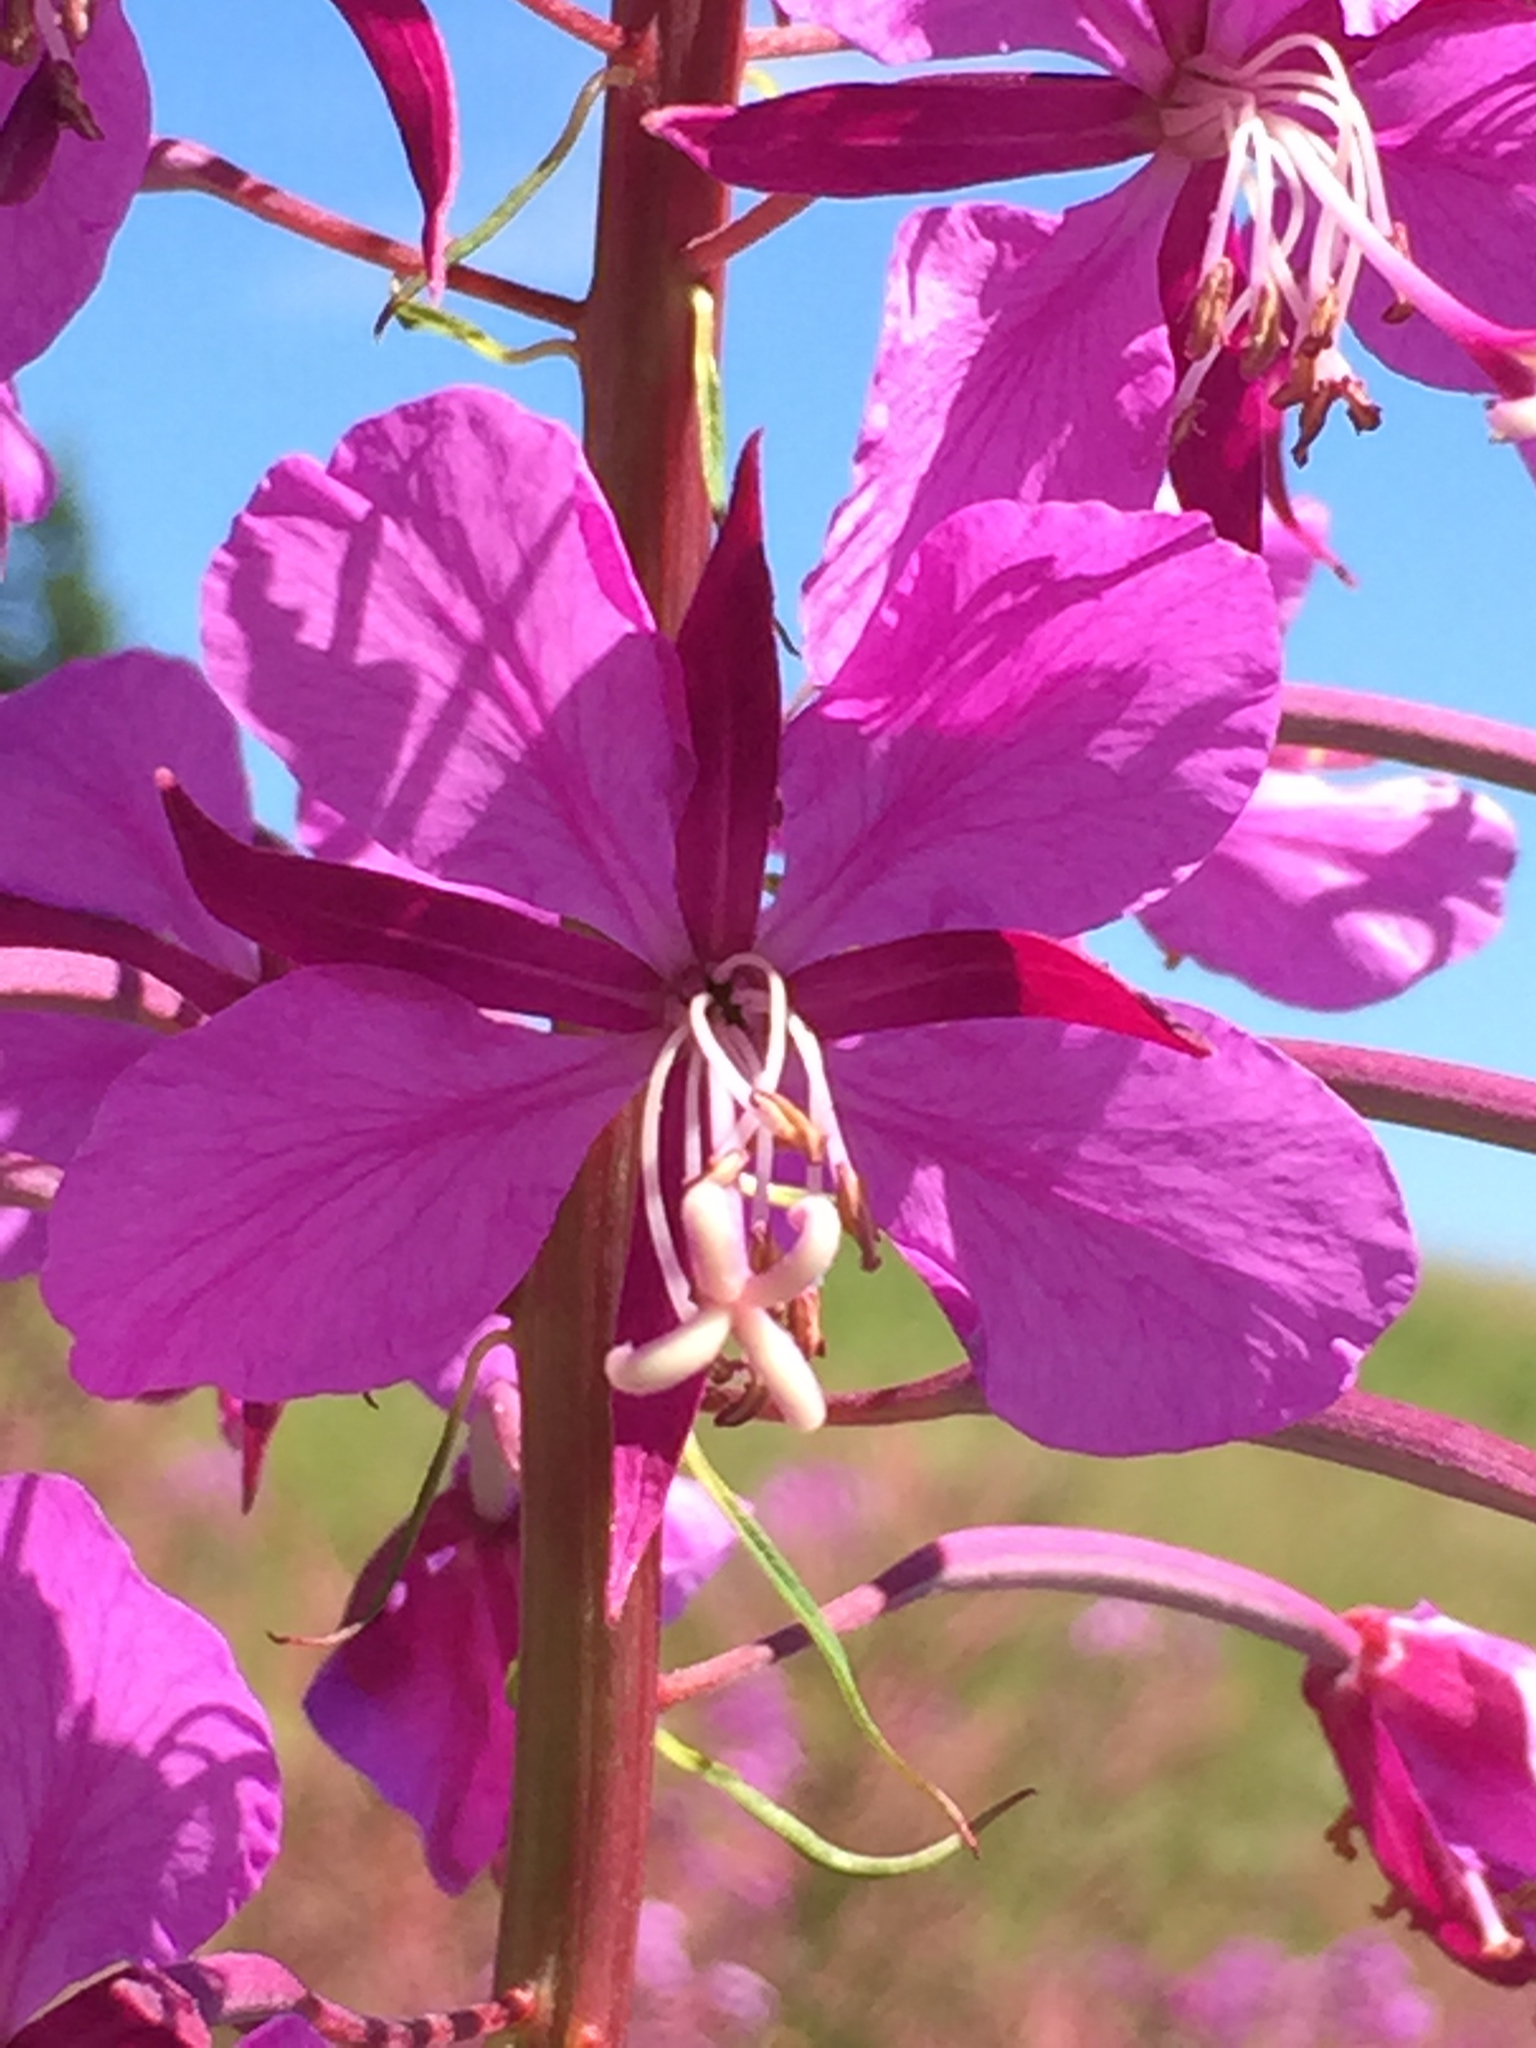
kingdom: Plantae
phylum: Tracheophyta
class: Magnoliopsida
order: Myrtales
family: Onagraceae
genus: Chamaenerion
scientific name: Chamaenerion angustifolium
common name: Fireweed
